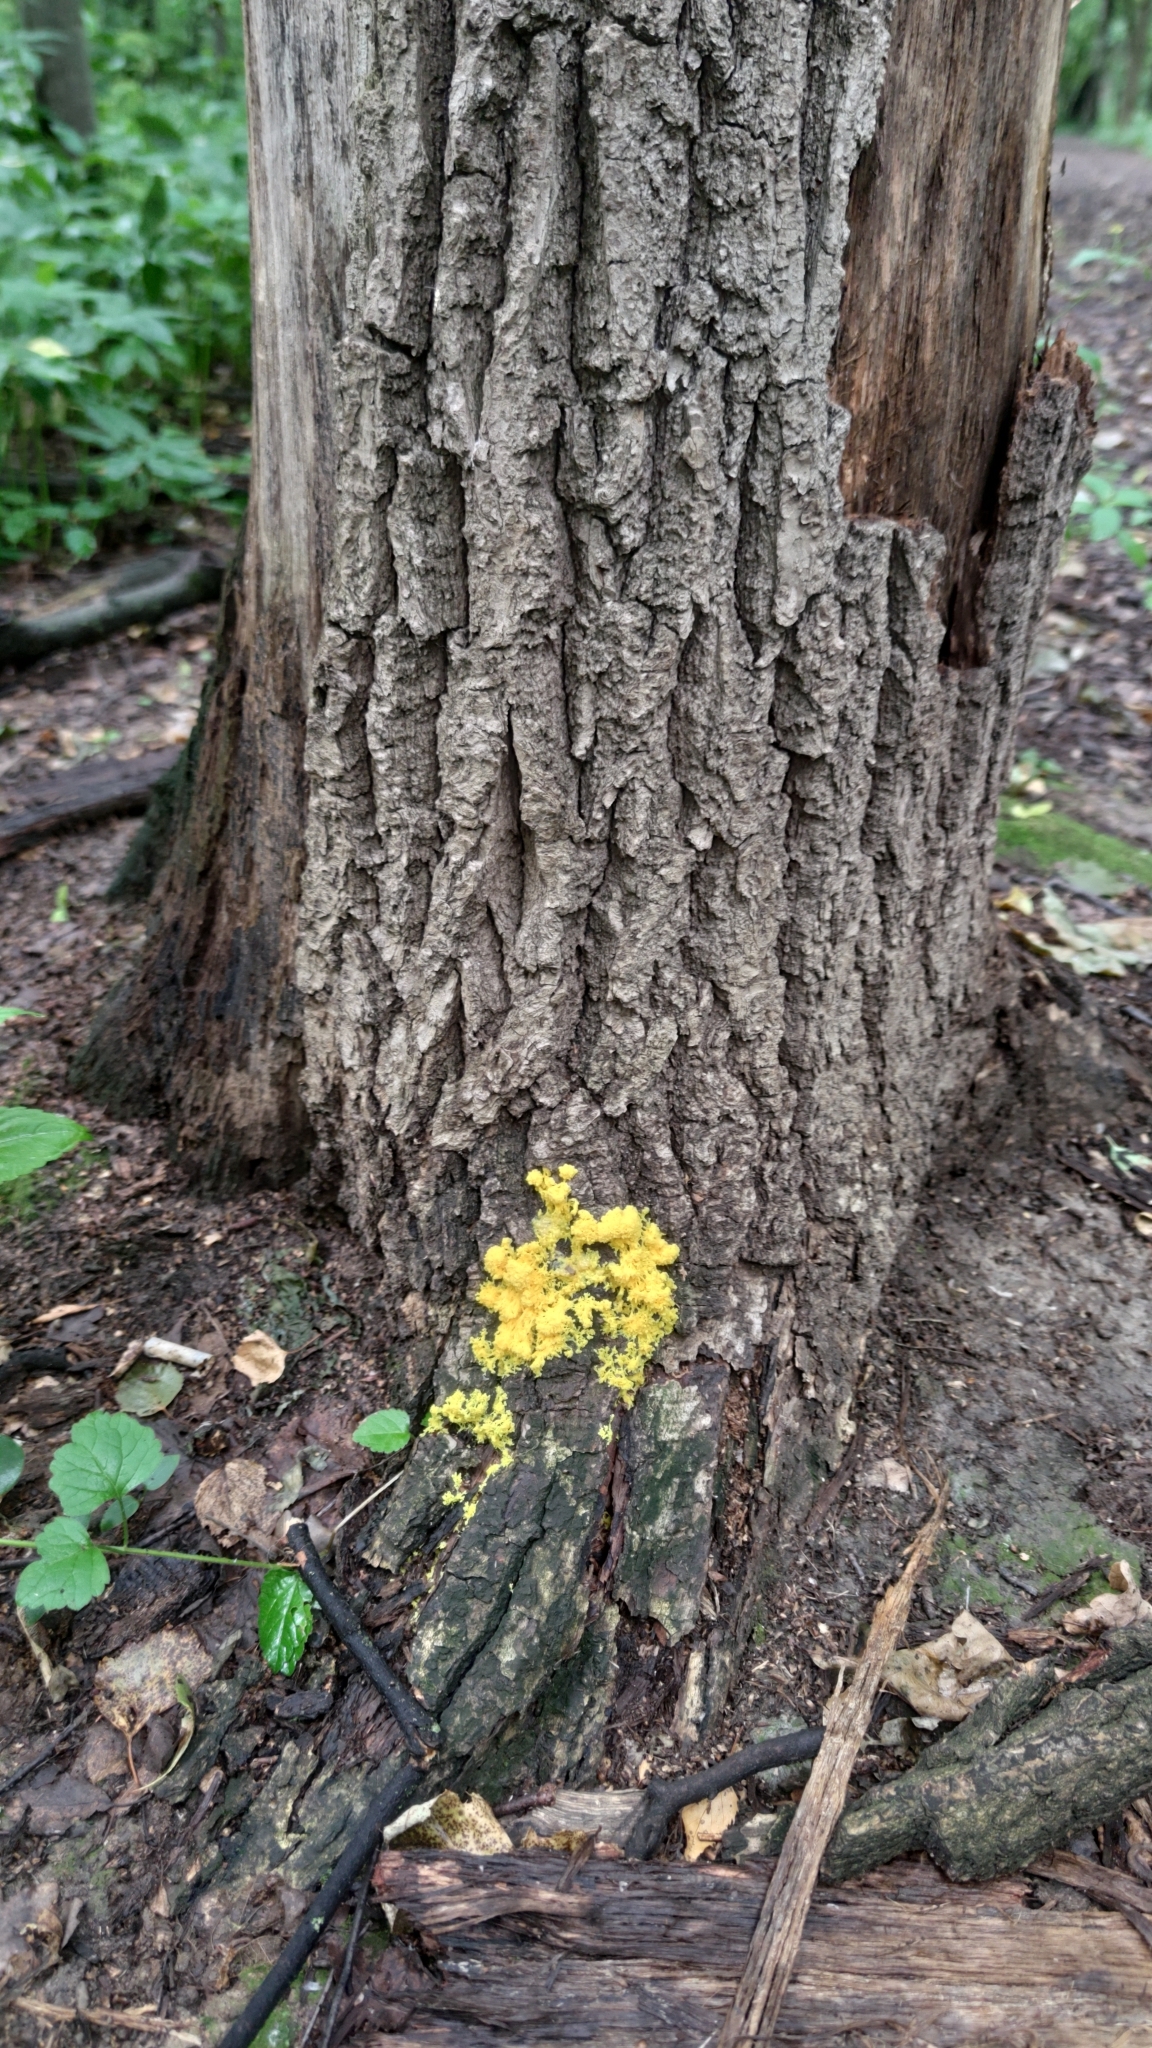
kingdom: Protozoa
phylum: Mycetozoa
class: Myxomycetes
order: Physarales
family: Physaraceae
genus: Fuligo
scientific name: Fuligo septica
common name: Dog vomit slime mold
